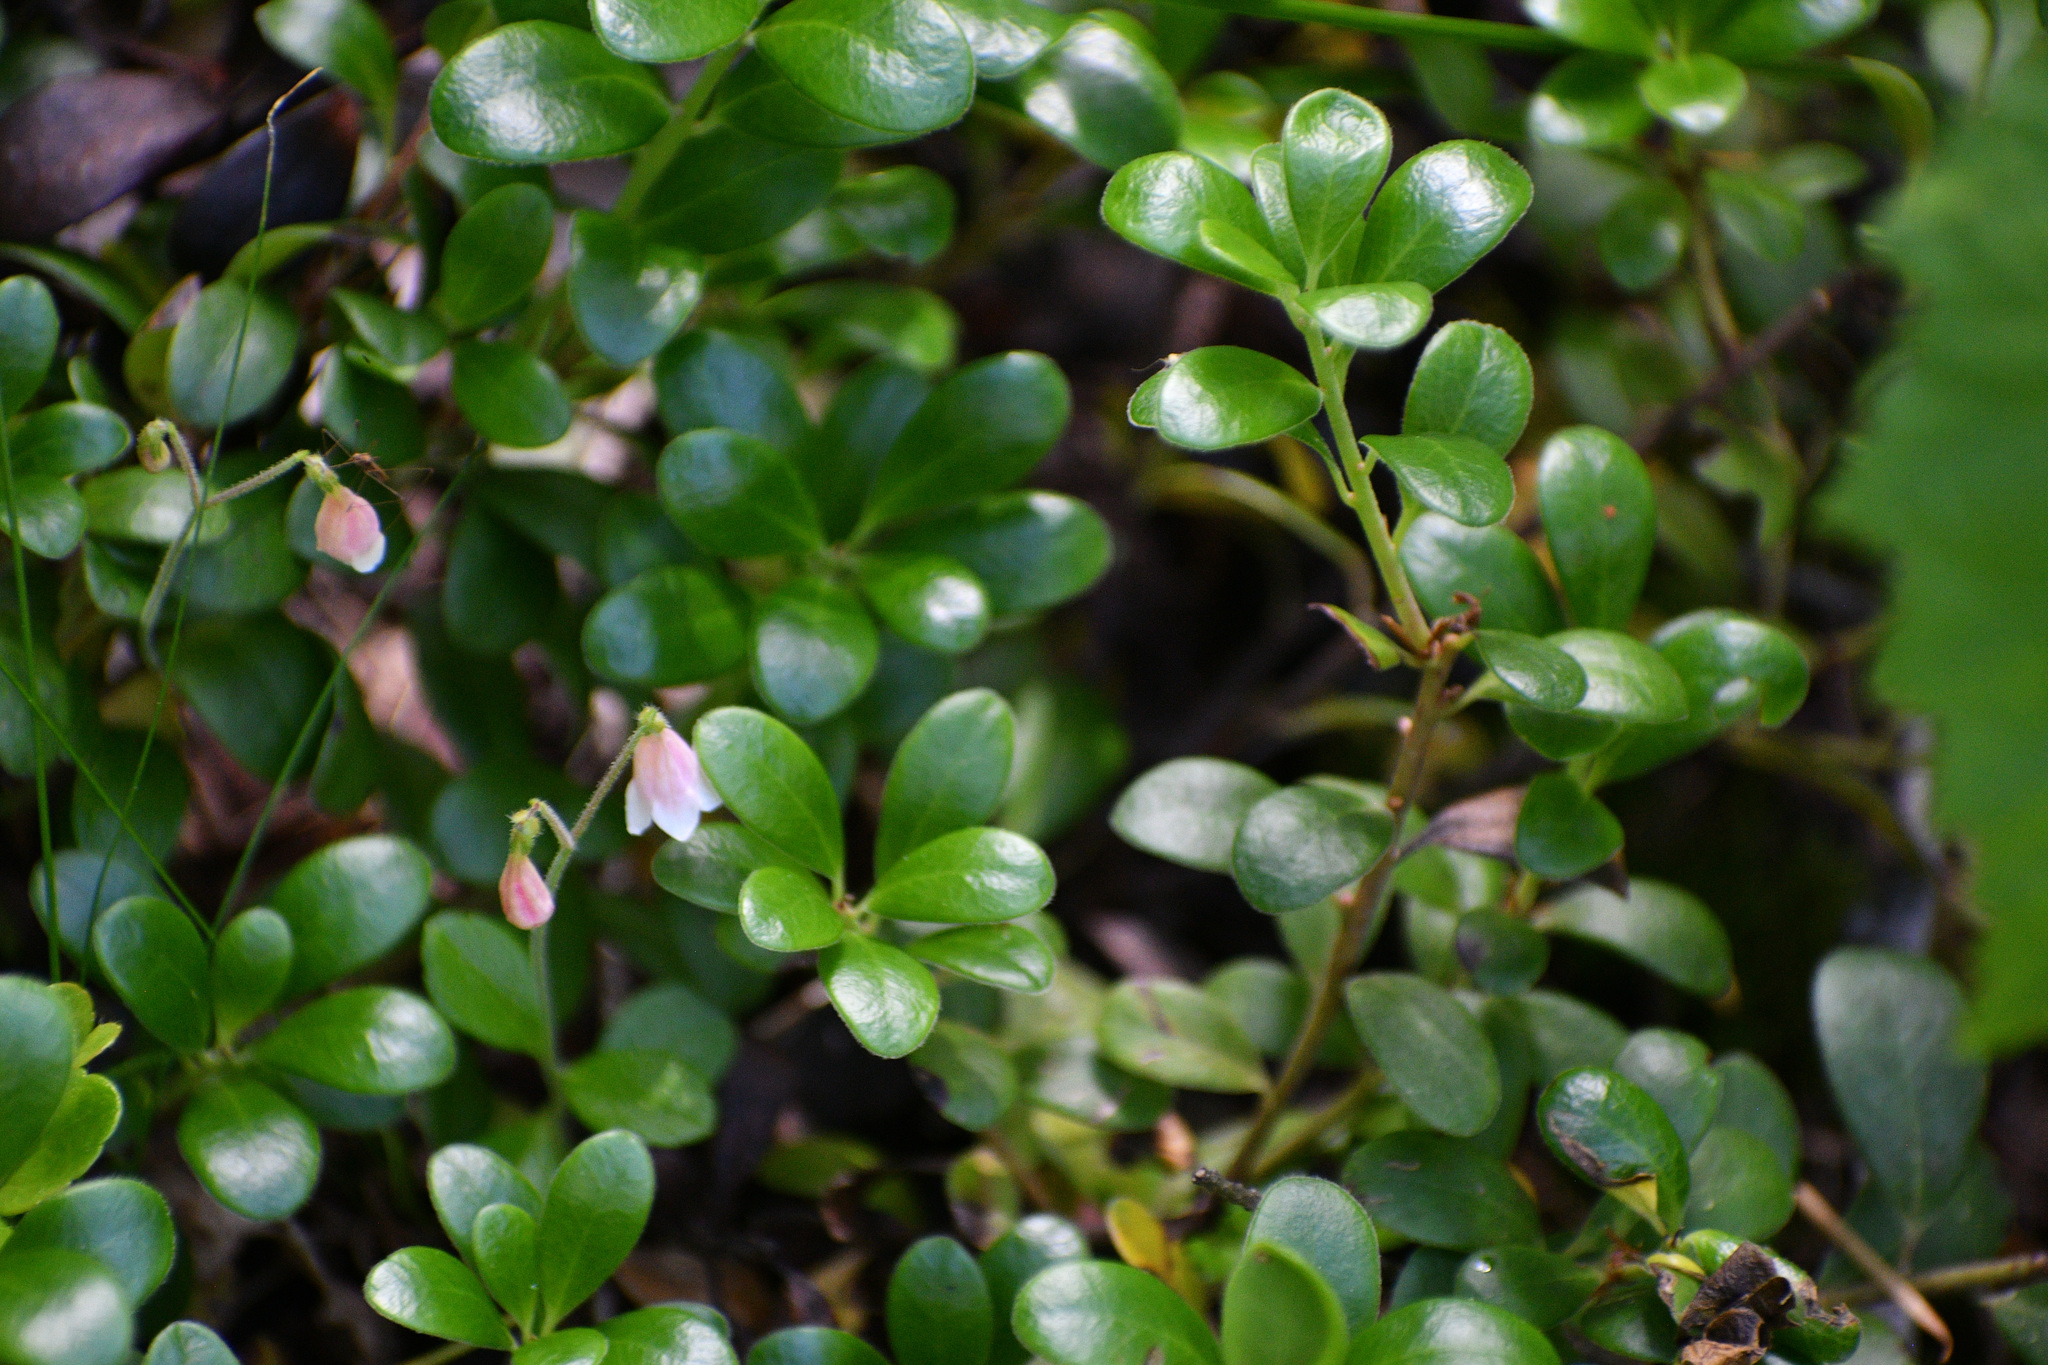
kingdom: Plantae
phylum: Tracheophyta
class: Magnoliopsida
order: Dipsacales
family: Caprifoliaceae
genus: Linnaea
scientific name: Linnaea borealis
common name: Twinflower
